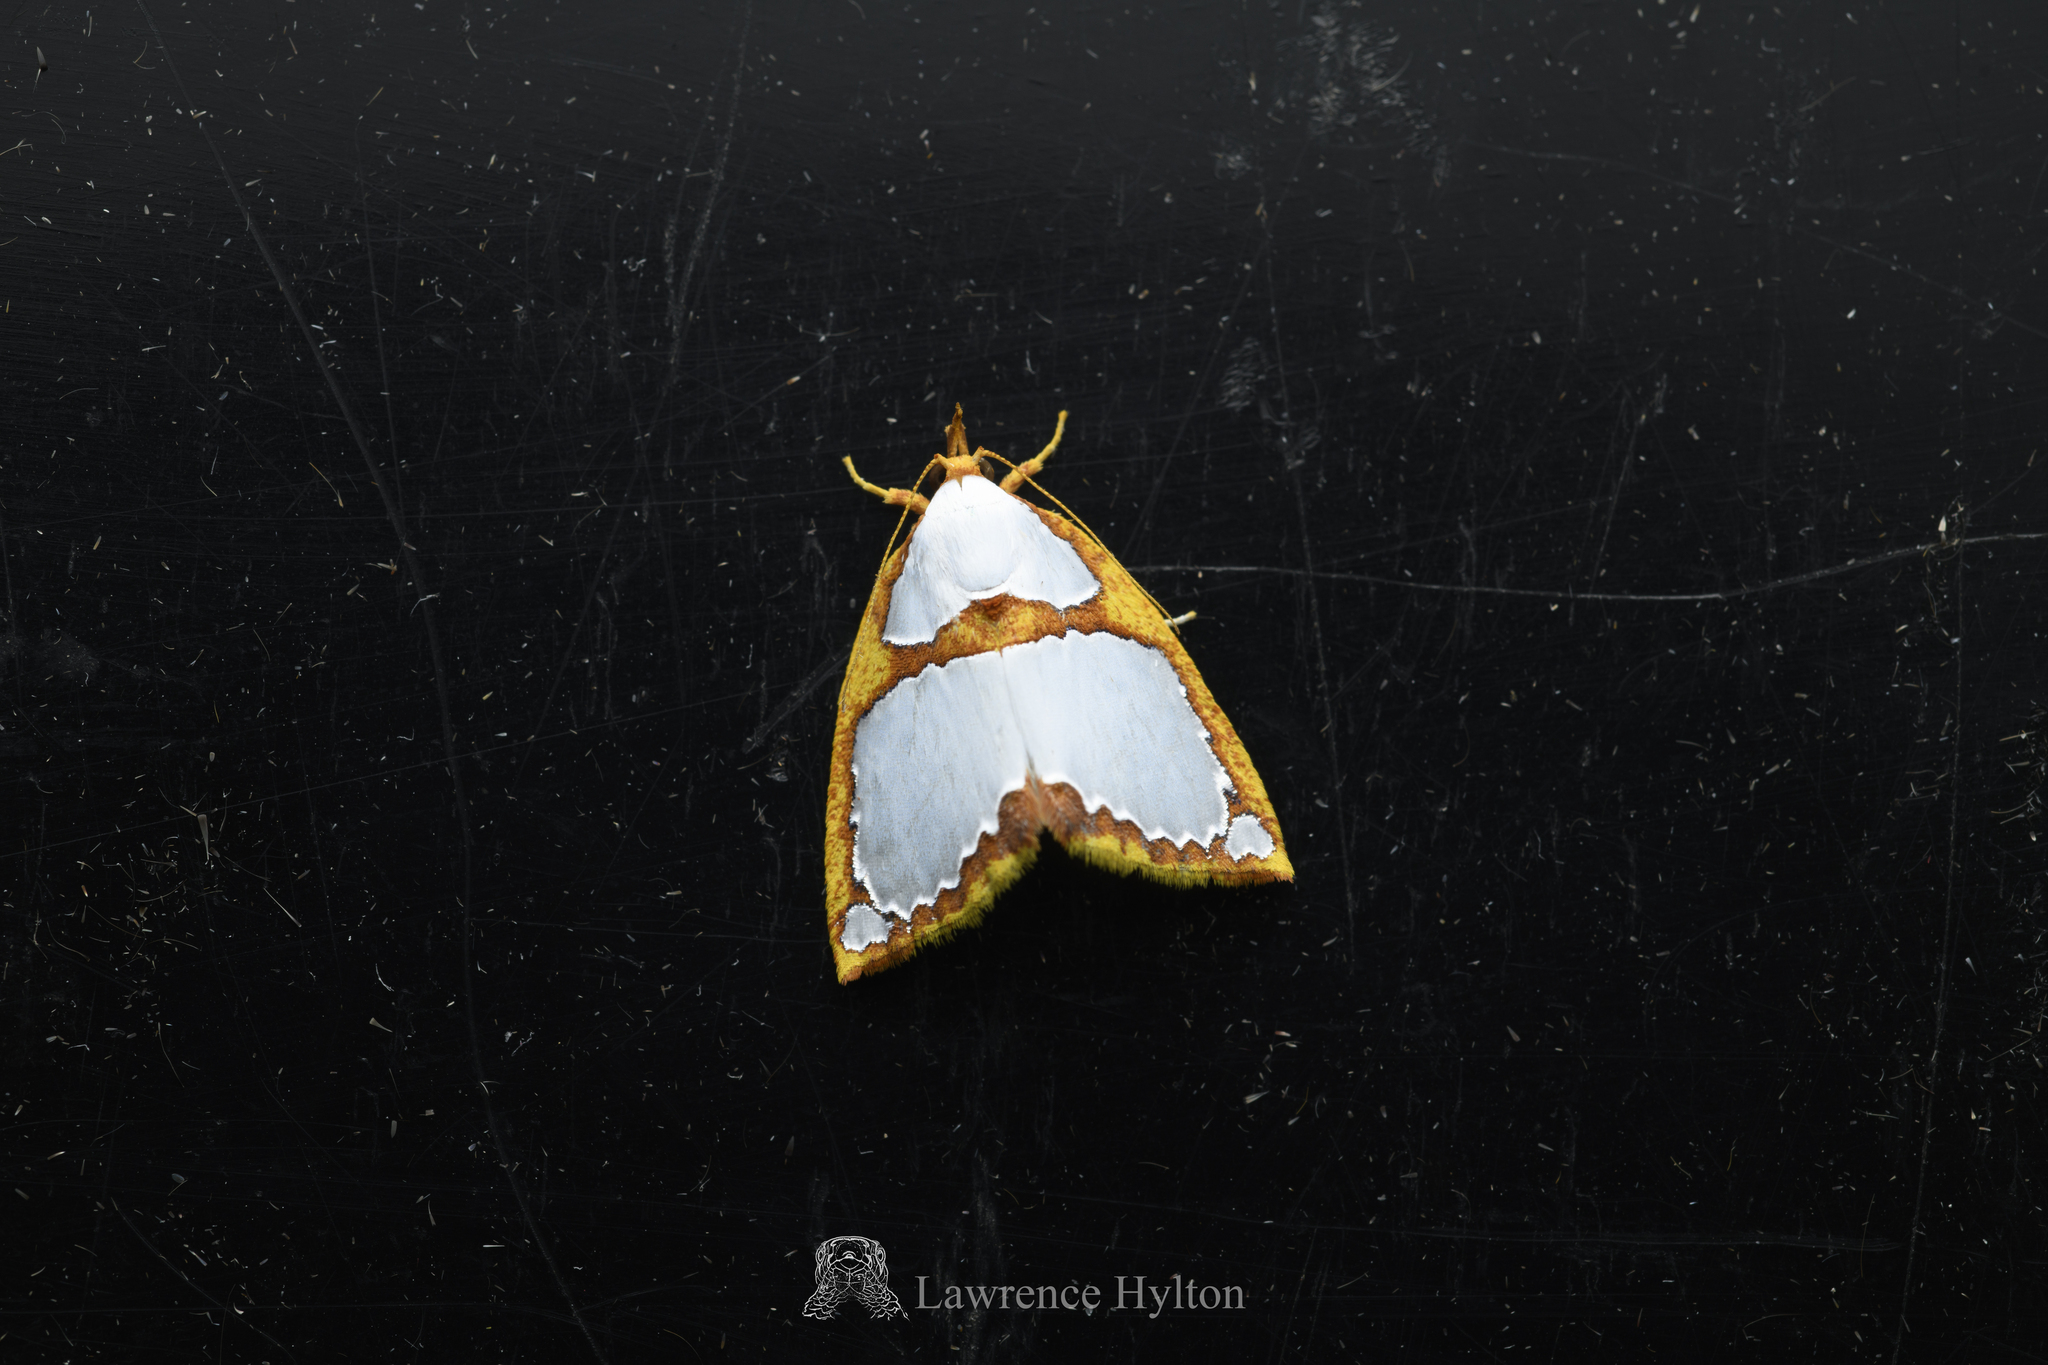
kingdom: Animalia
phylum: Arthropoda
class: Insecta
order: Lepidoptera
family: Nolidae
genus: Titulcia
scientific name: Titulcia confictella
